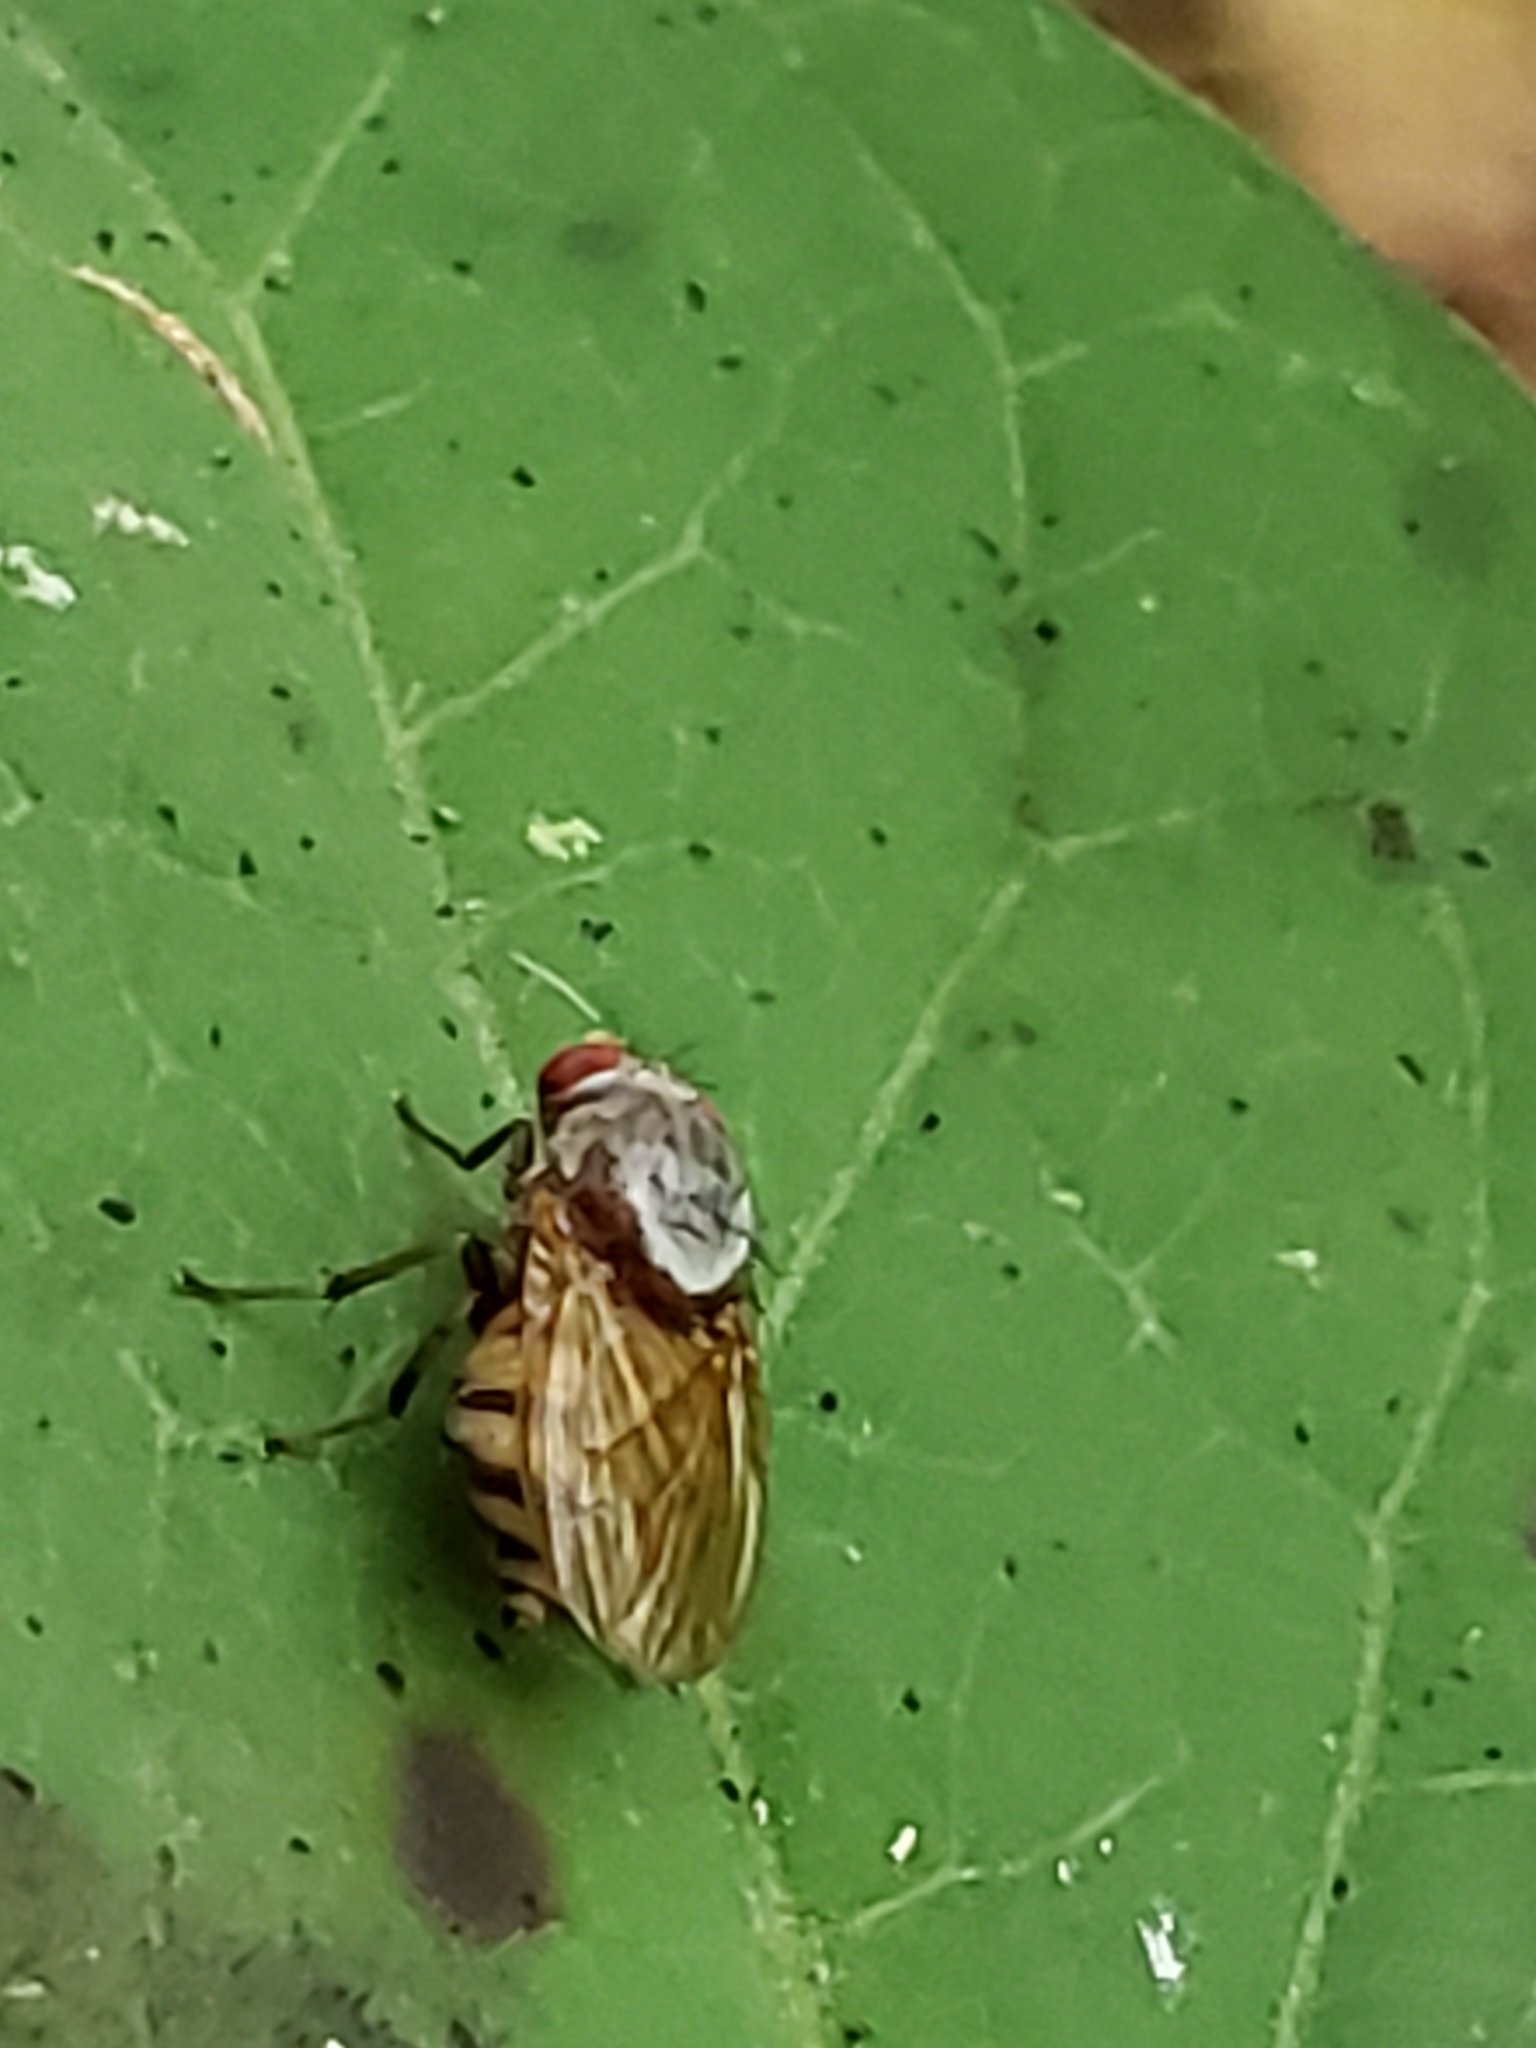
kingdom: Animalia
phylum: Arthropoda
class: Insecta
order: Diptera
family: Lauxaniidae
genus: Minettia
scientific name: Minettia magna
